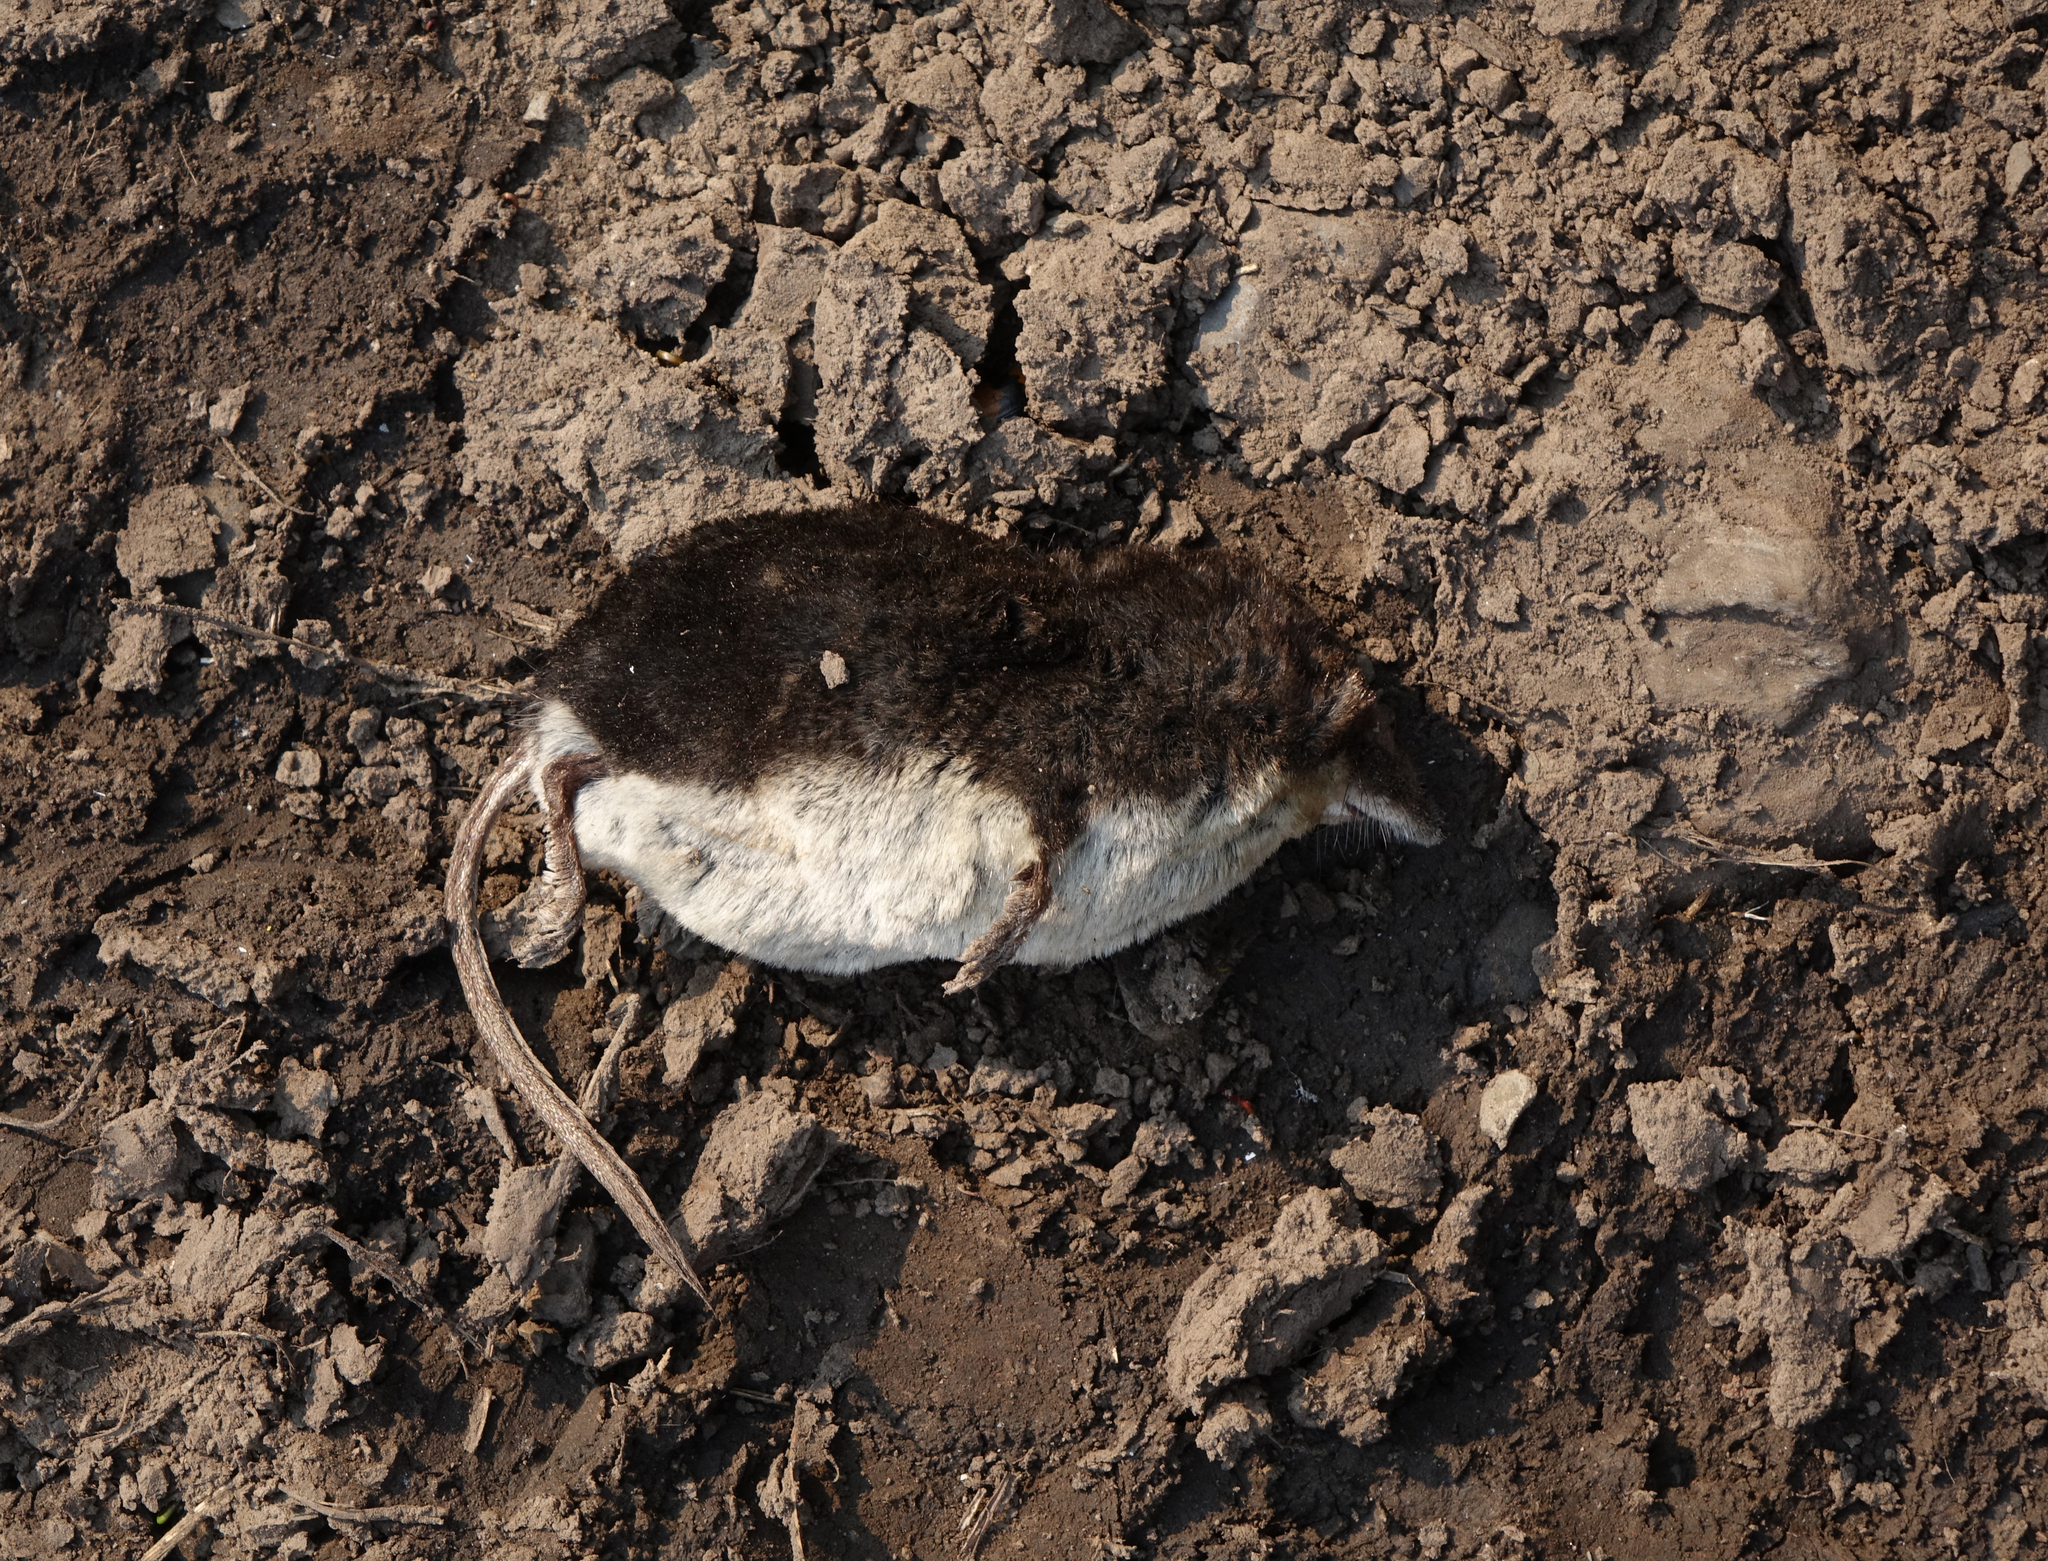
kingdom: Animalia
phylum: Chordata
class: Mammalia
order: Soricomorpha
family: Soricidae
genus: Neomys
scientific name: Neomys fodiens
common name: Eurasian water shrew
